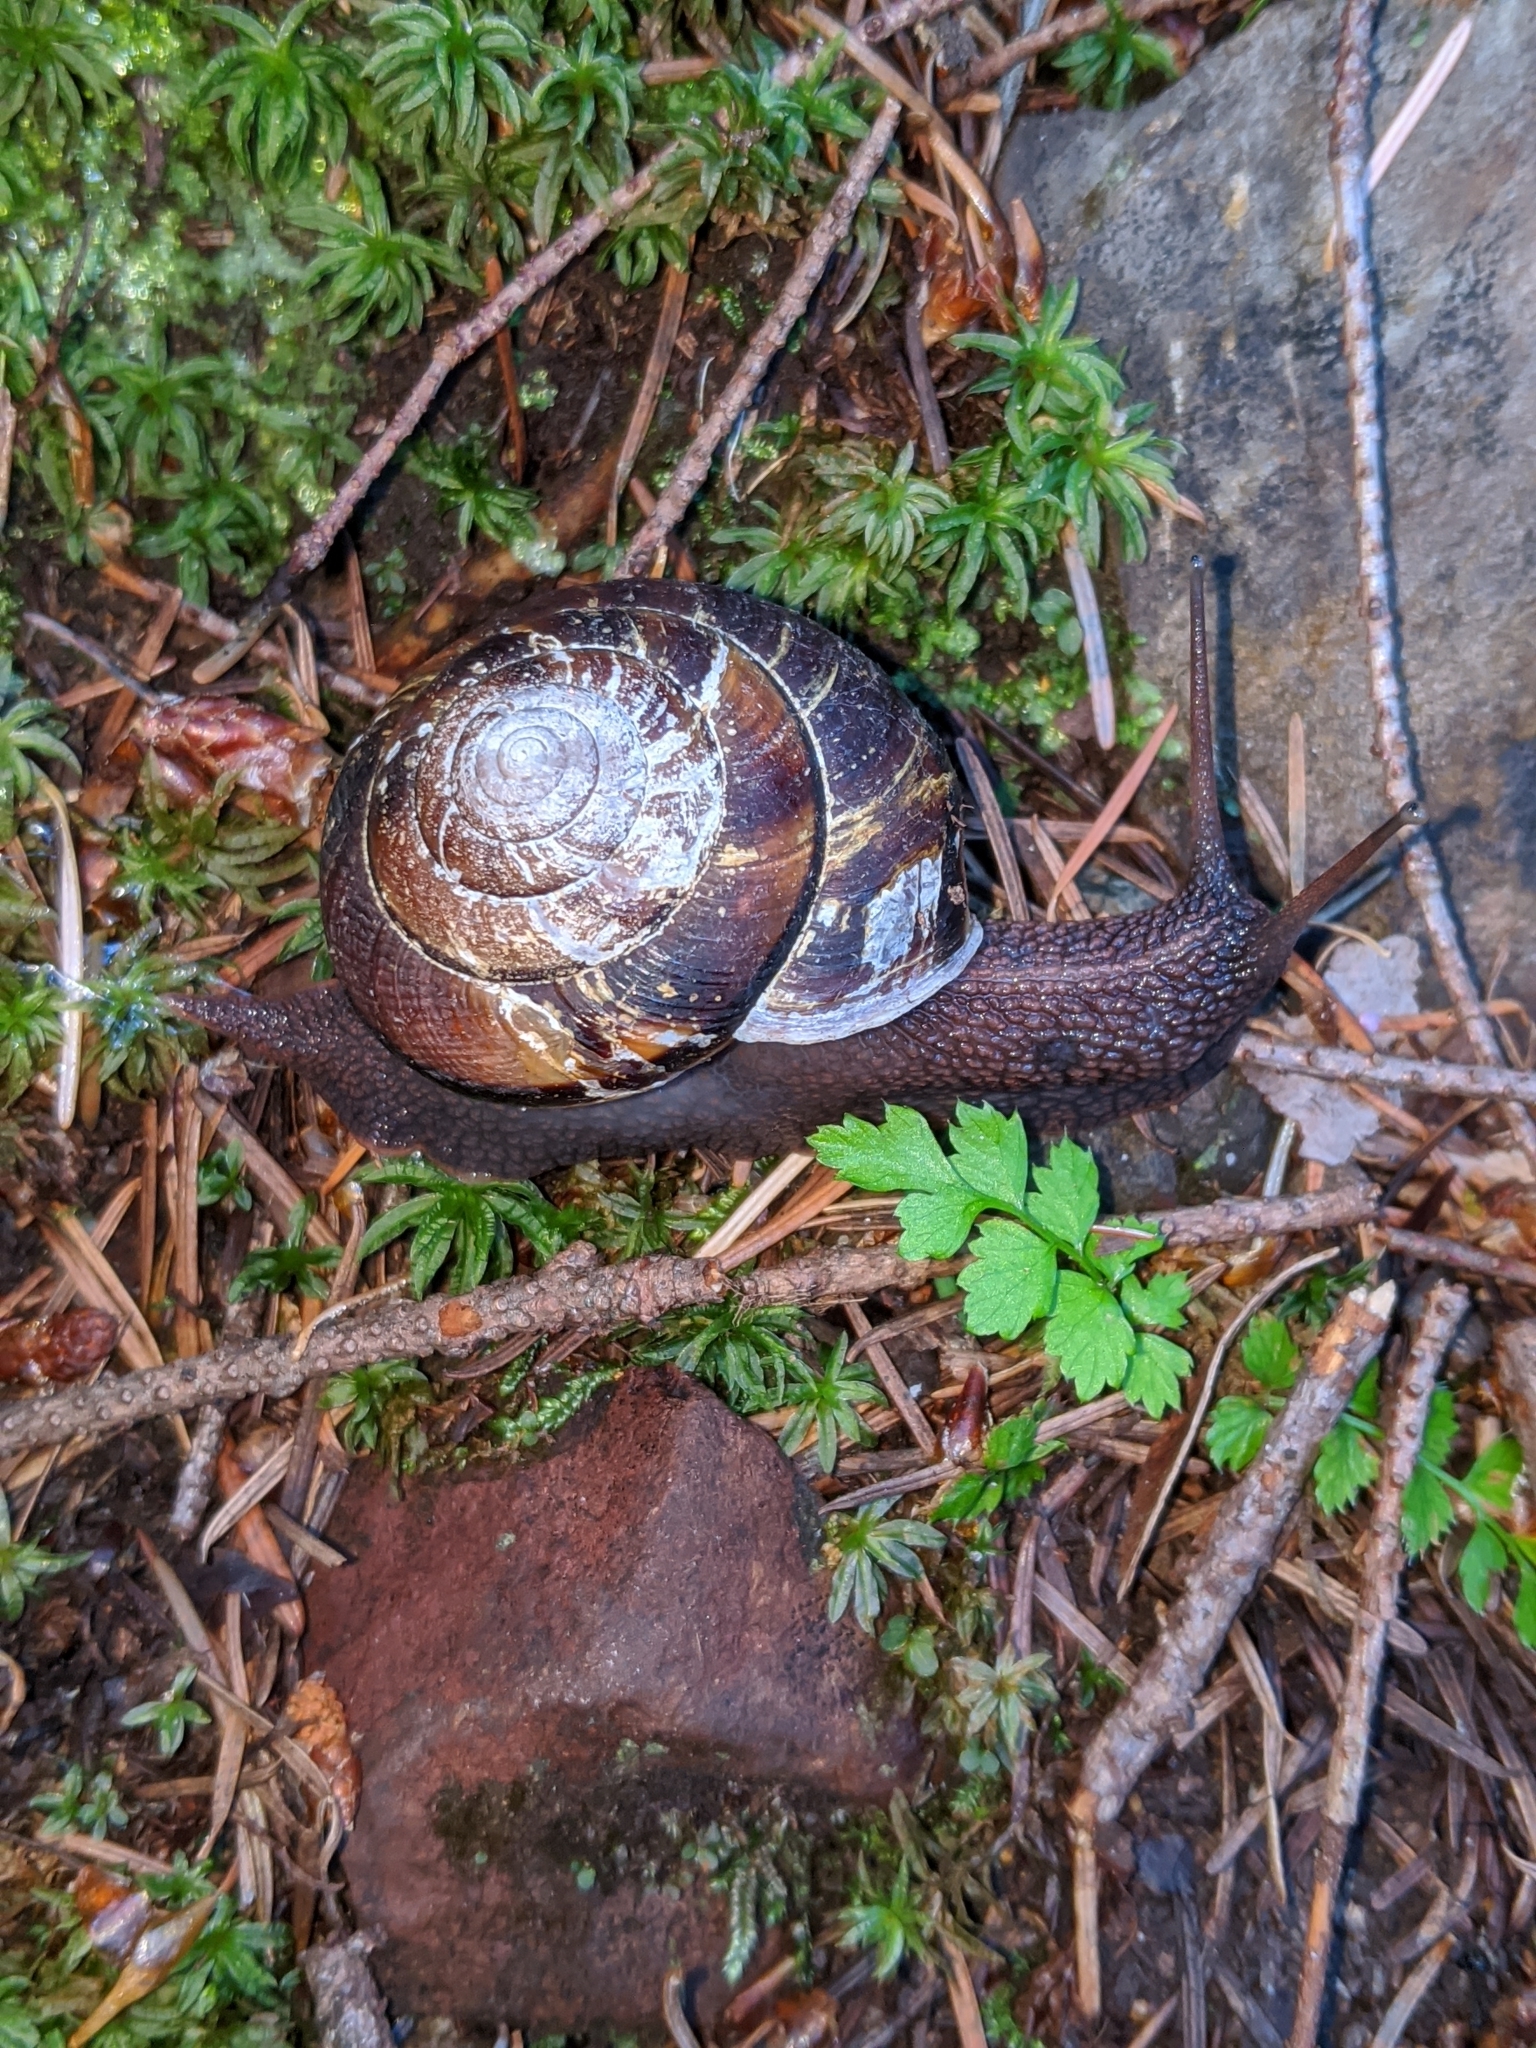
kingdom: Animalia
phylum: Mollusca
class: Gastropoda
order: Stylommatophora
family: Xanthonychidae
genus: Monadenia
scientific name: Monadenia fidelis
